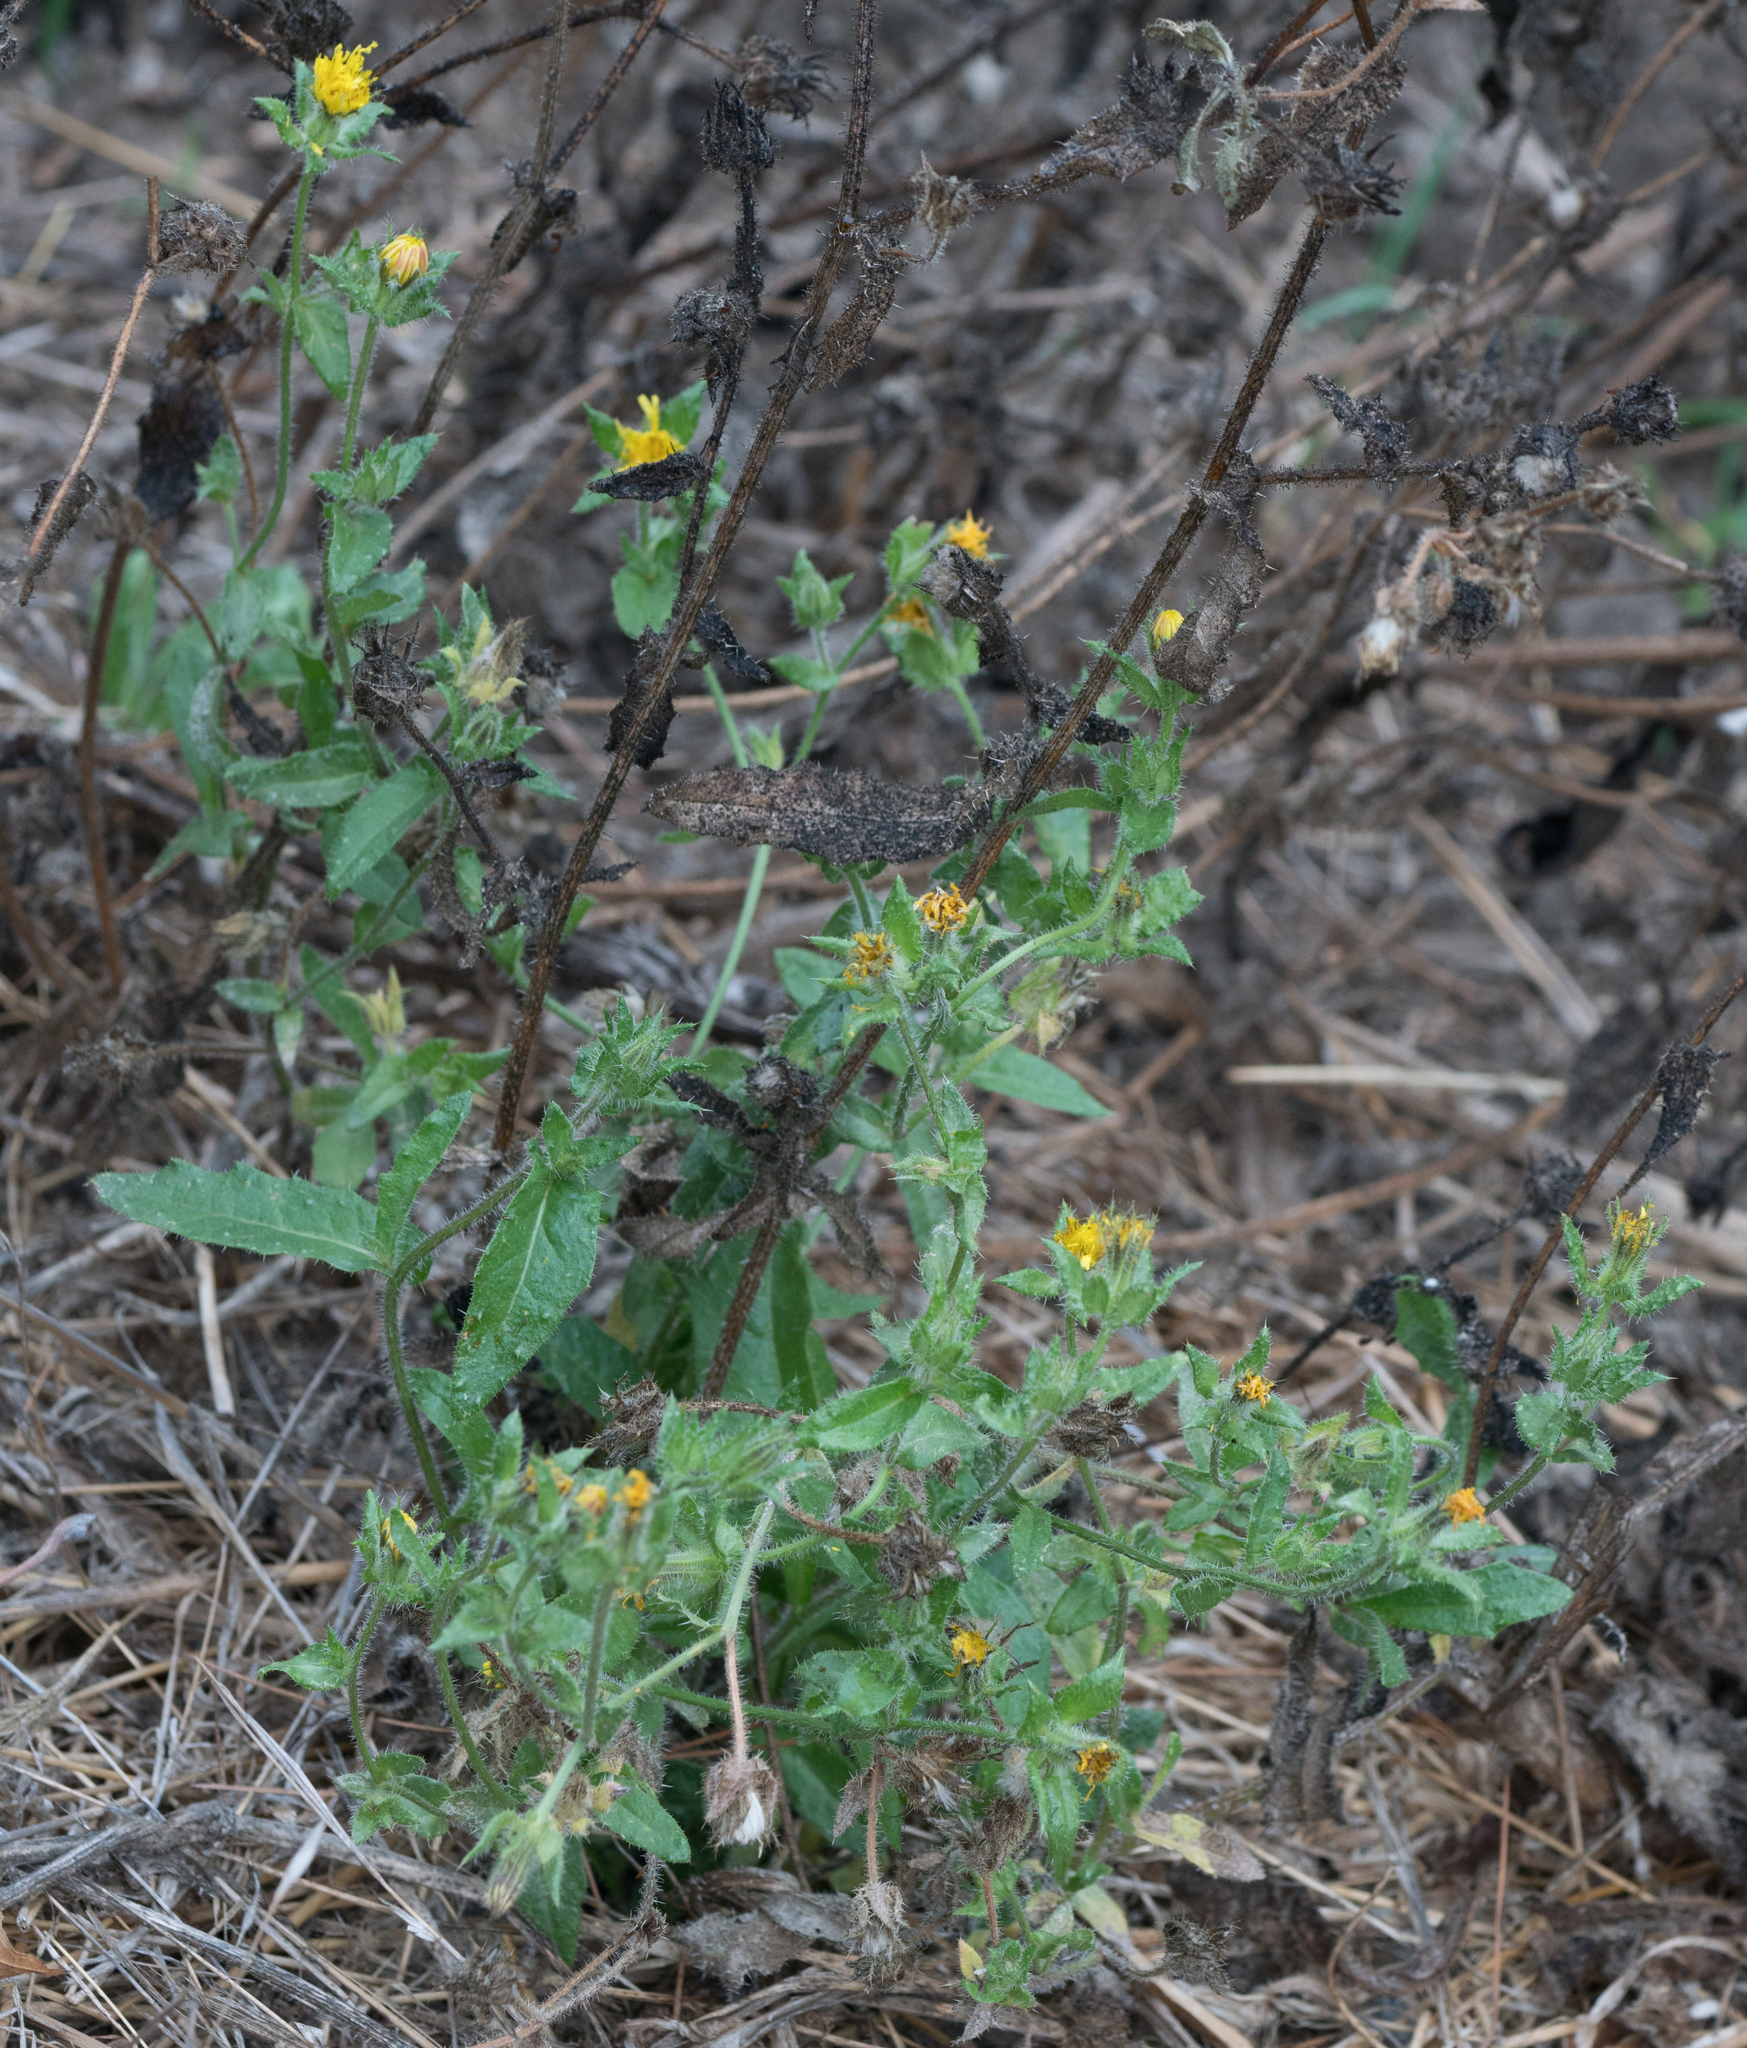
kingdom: Plantae
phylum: Tracheophyta
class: Magnoliopsida
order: Asterales
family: Asteraceae
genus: Helminthotheca
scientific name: Helminthotheca echioides
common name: Ox-tongue
